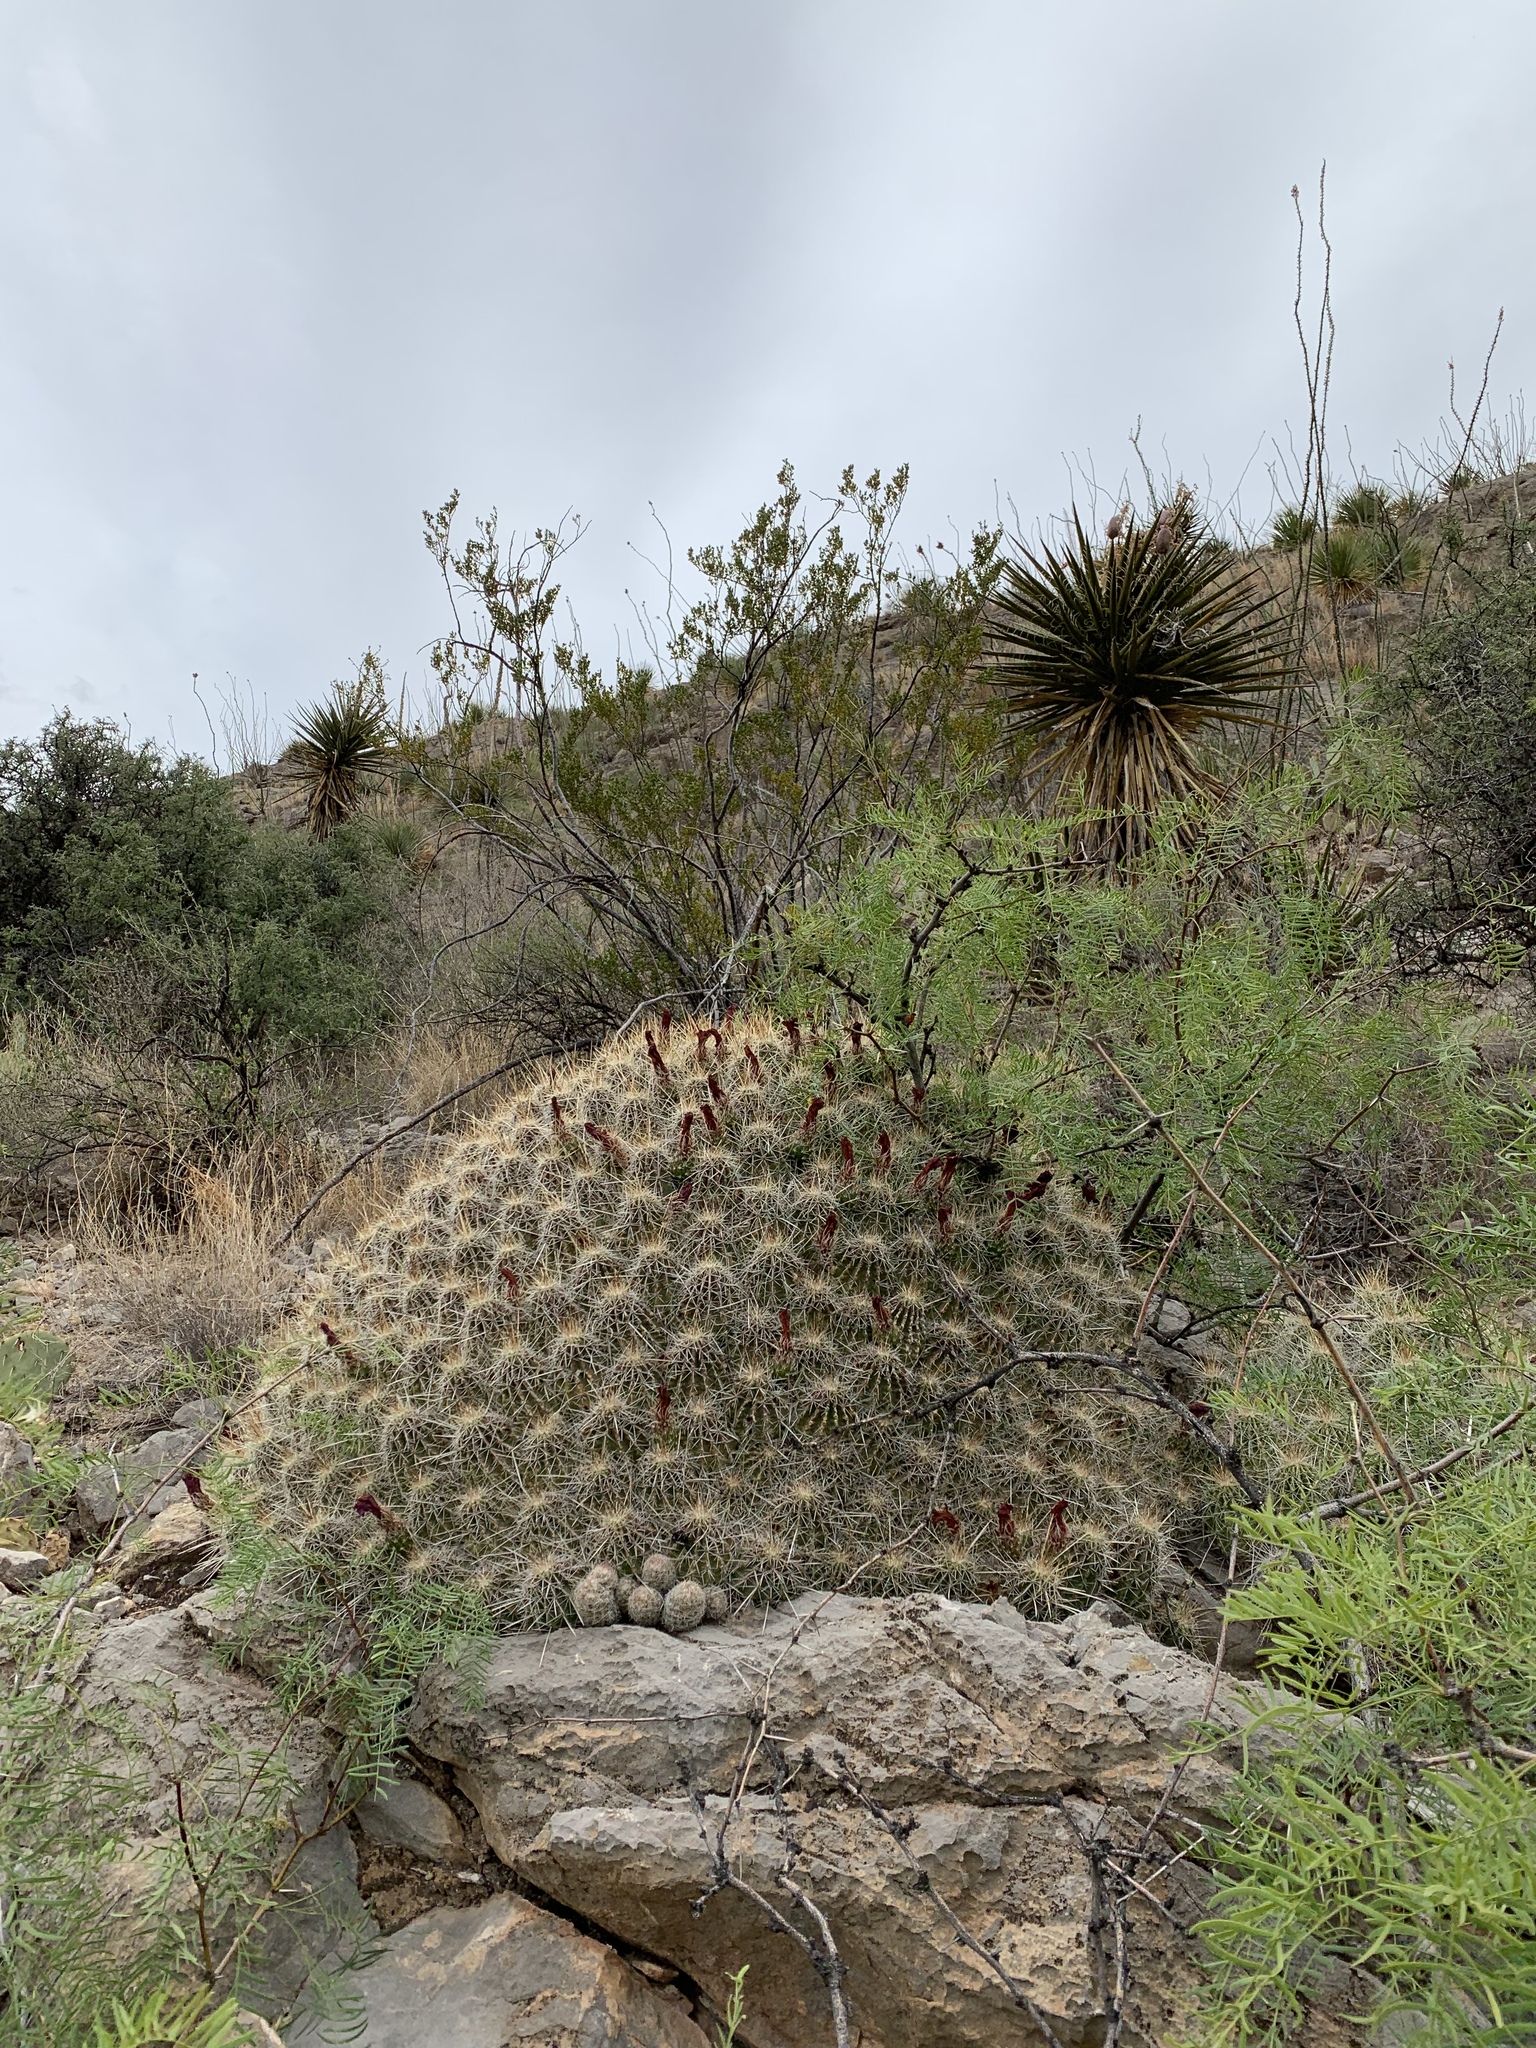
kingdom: Plantae
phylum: Tracheophyta
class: Magnoliopsida
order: Caryophyllales
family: Cactaceae
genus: Echinocereus
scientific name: Echinocereus stramineus
